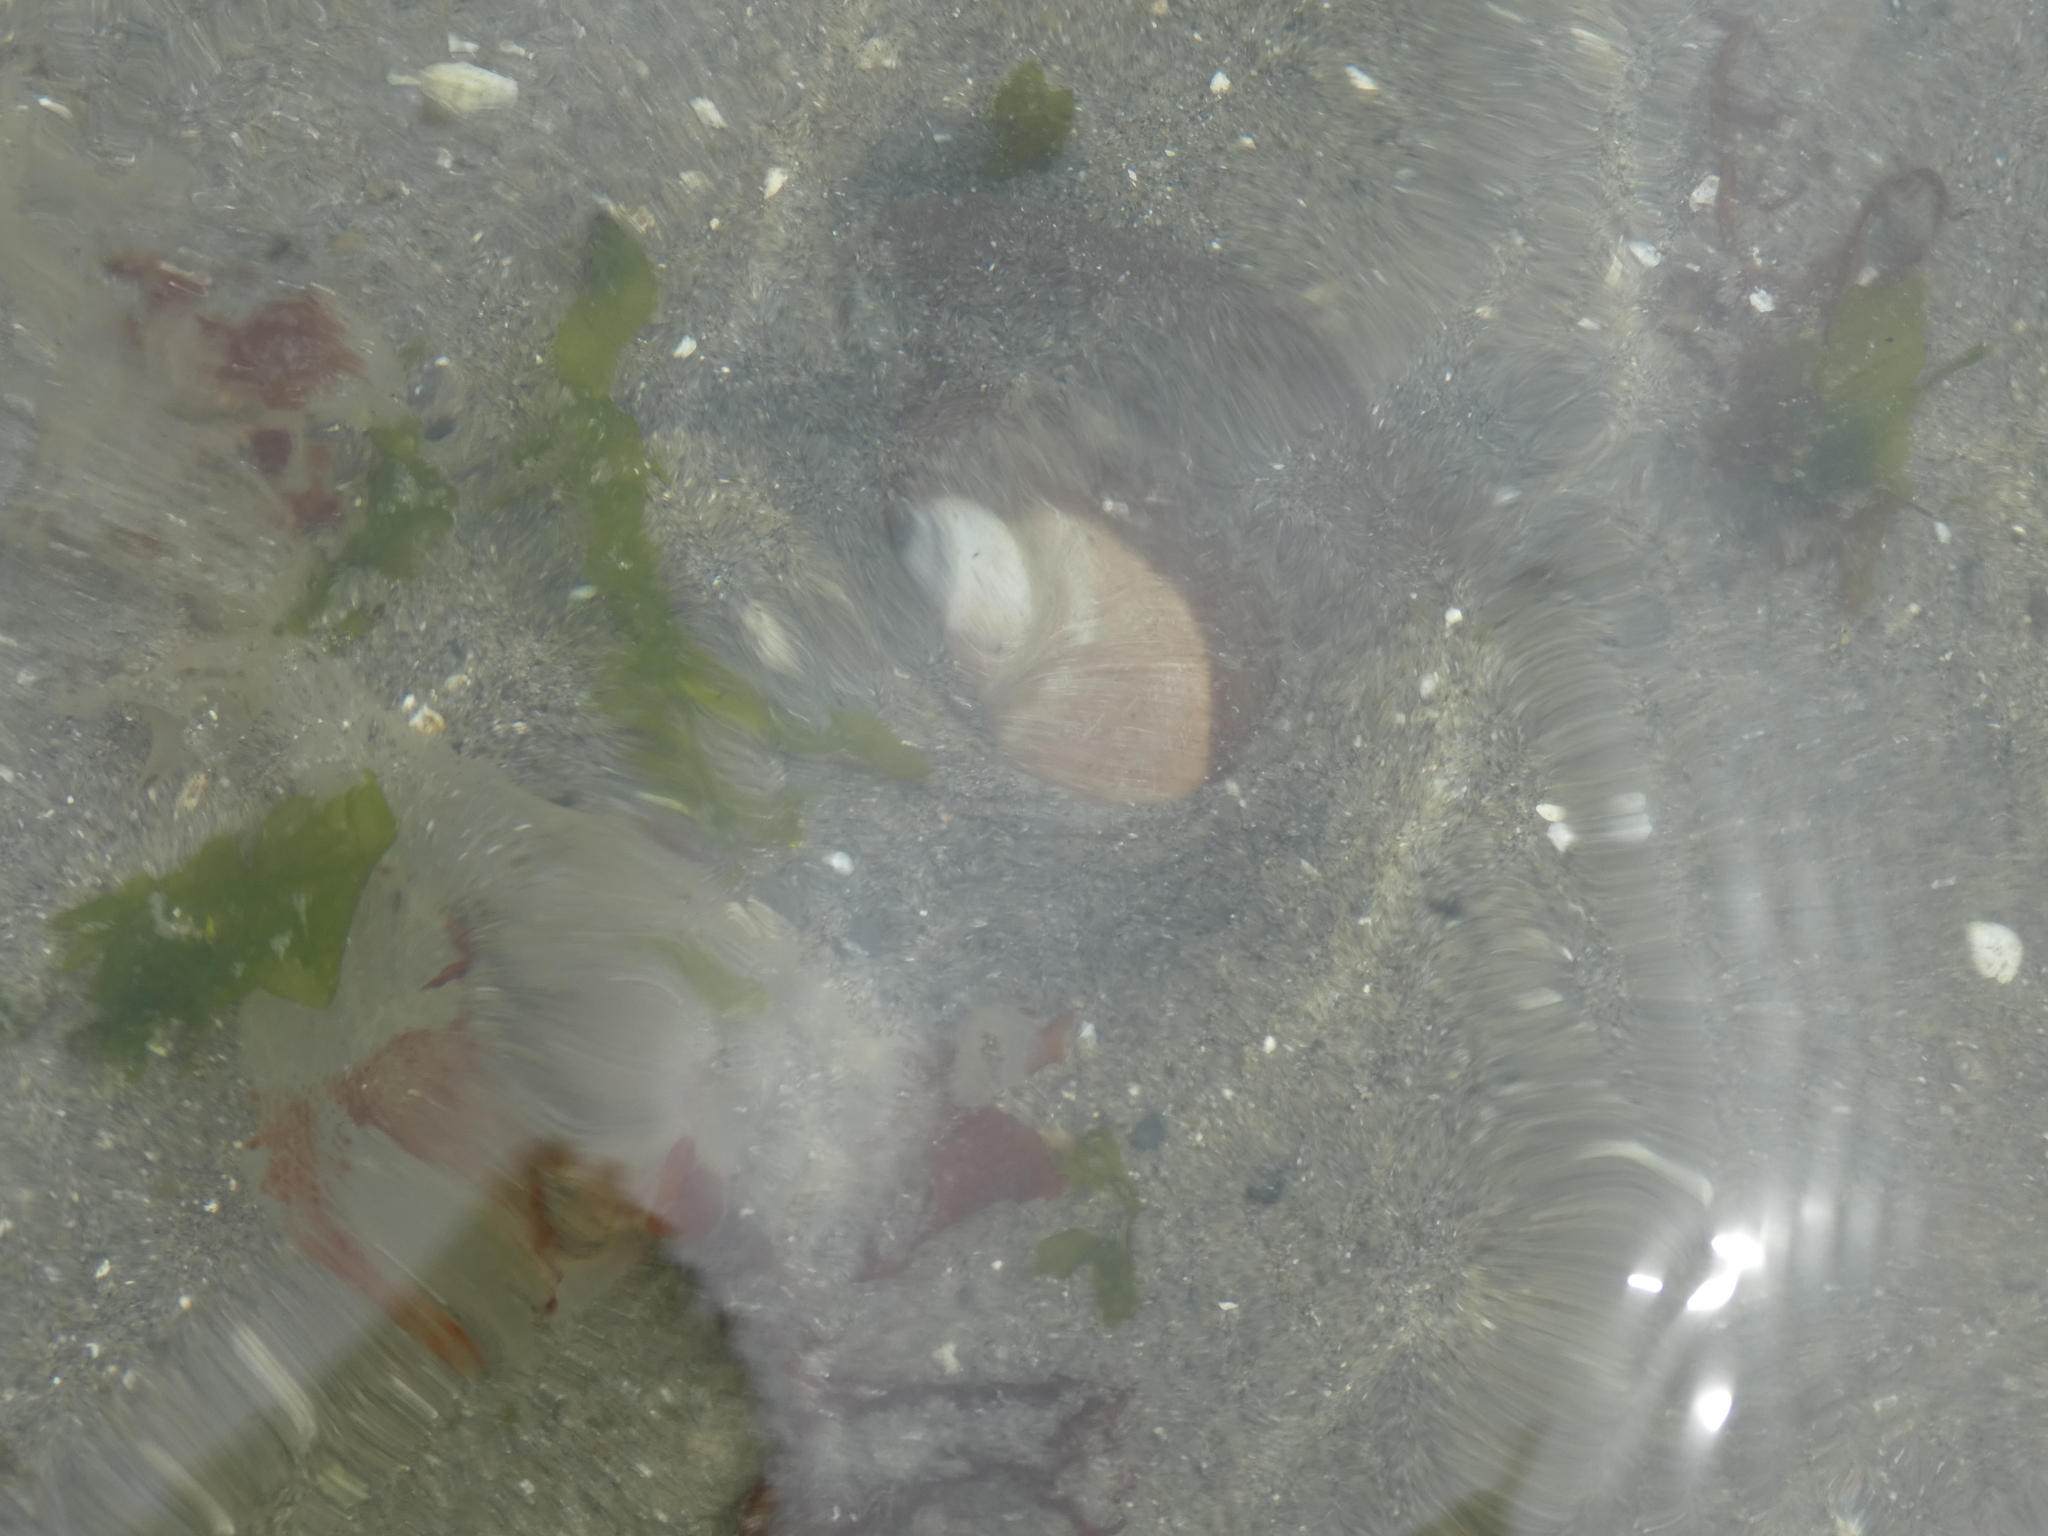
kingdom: Animalia
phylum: Mollusca
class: Gastropoda
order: Littorinimorpha
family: Naticidae
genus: Neverita
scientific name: Neverita lewisii
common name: Lewis' moonsnail
